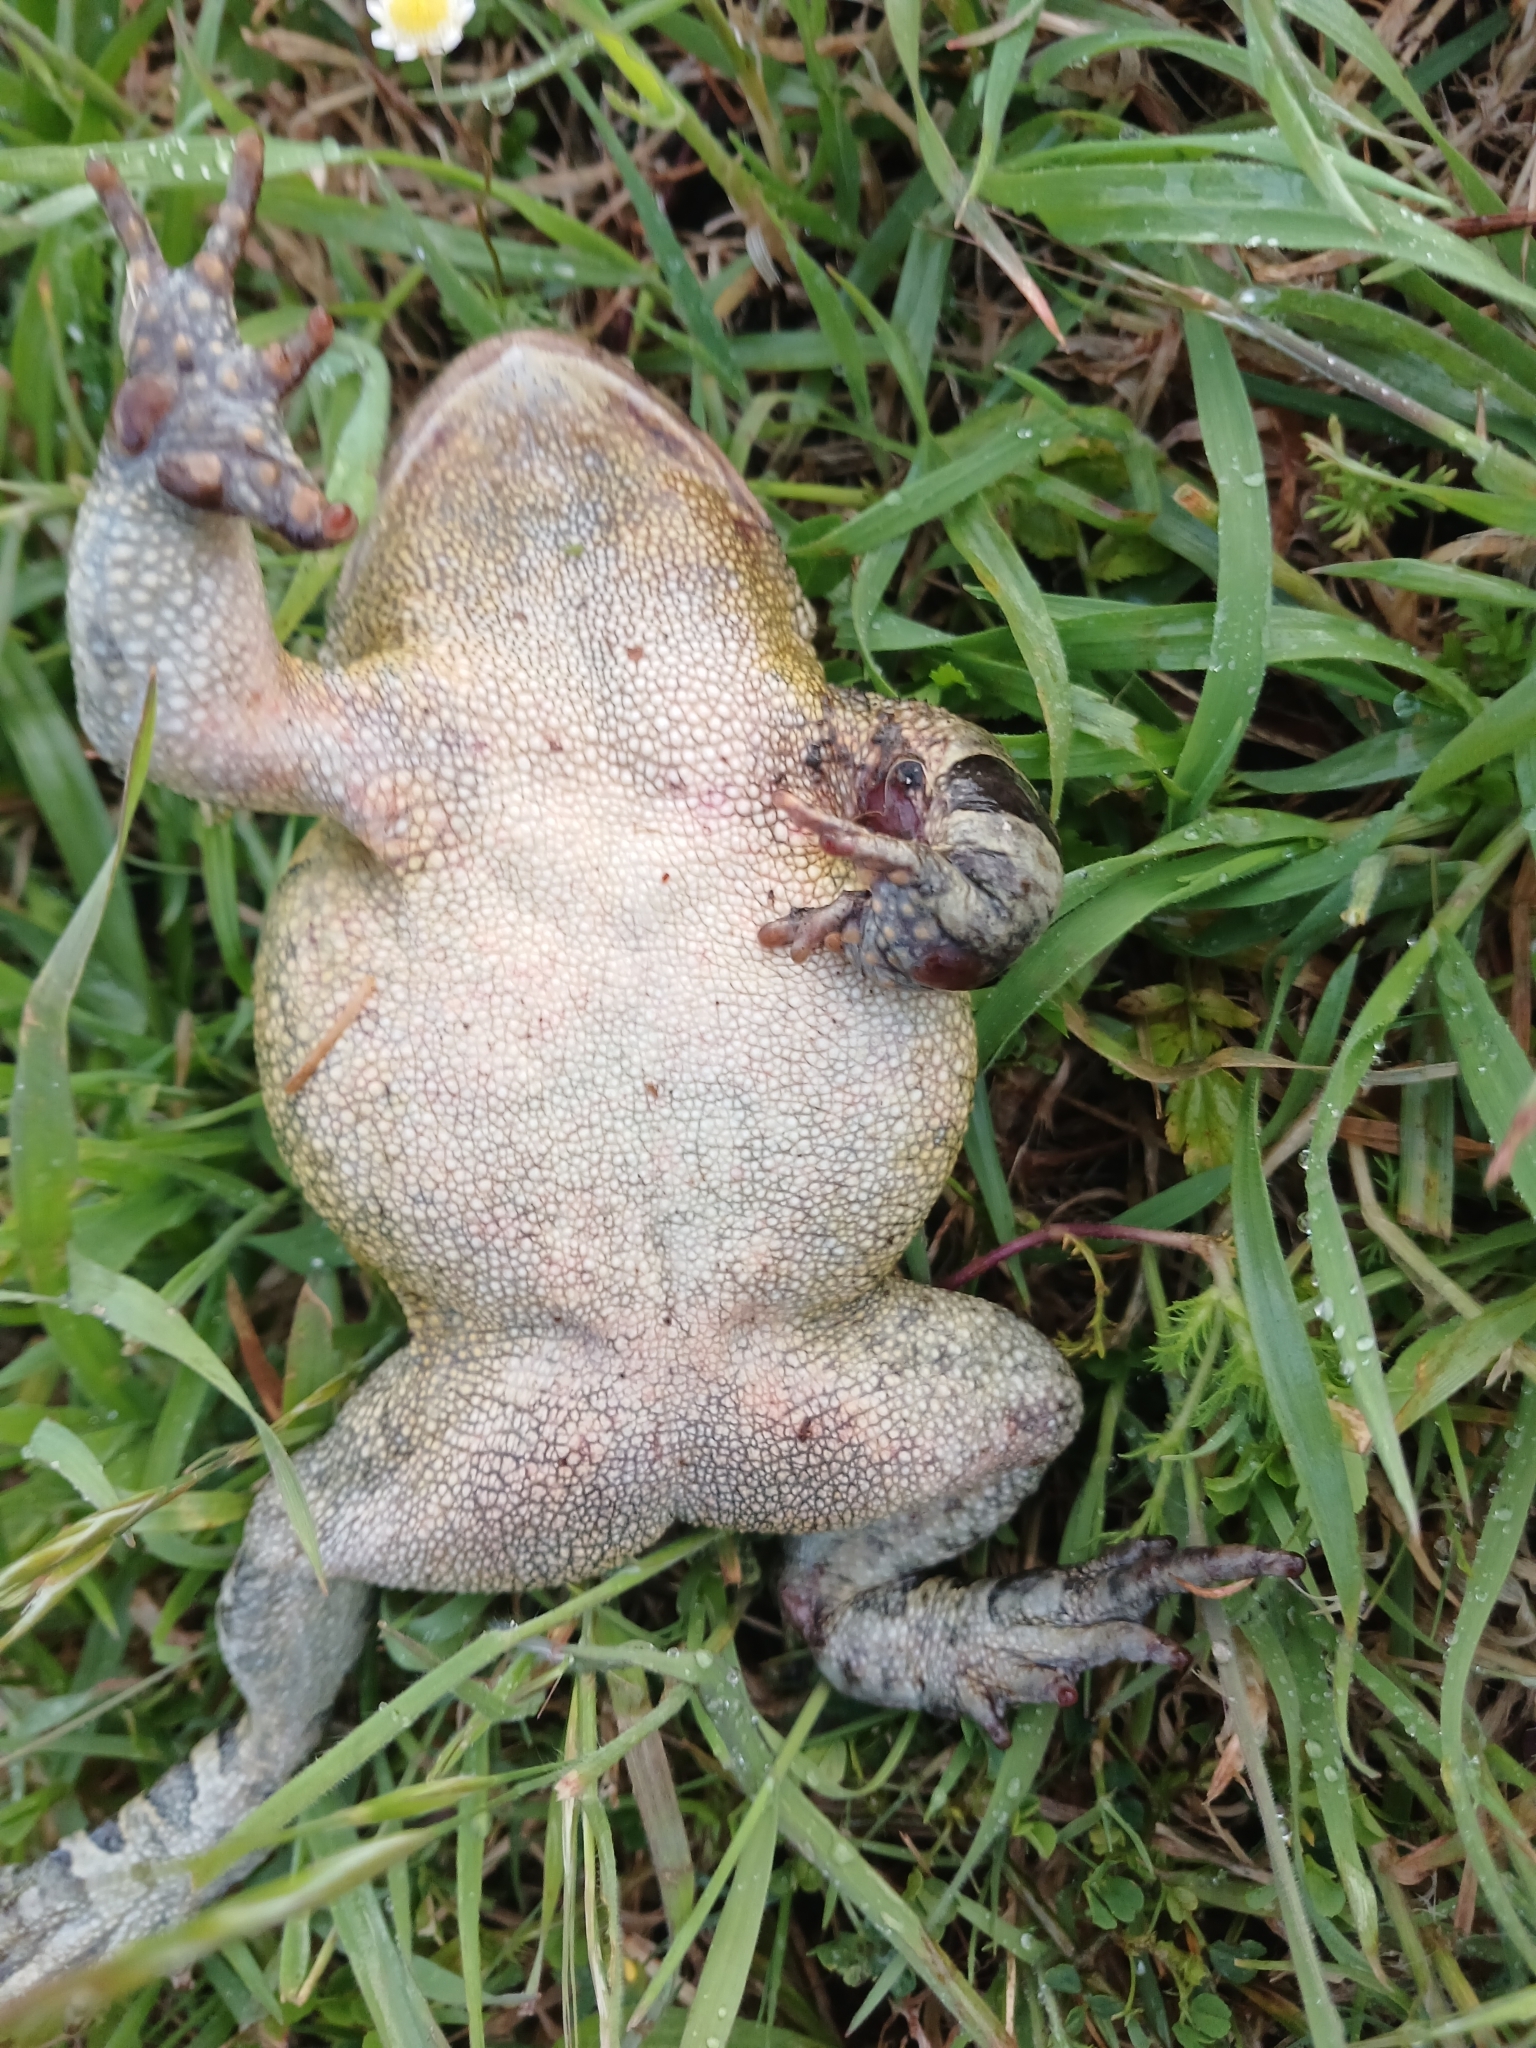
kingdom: Animalia
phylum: Chordata
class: Amphibia
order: Anura
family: Bufonidae
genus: Sclerophrys
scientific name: Sclerophrys pantherina
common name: Panther toad
